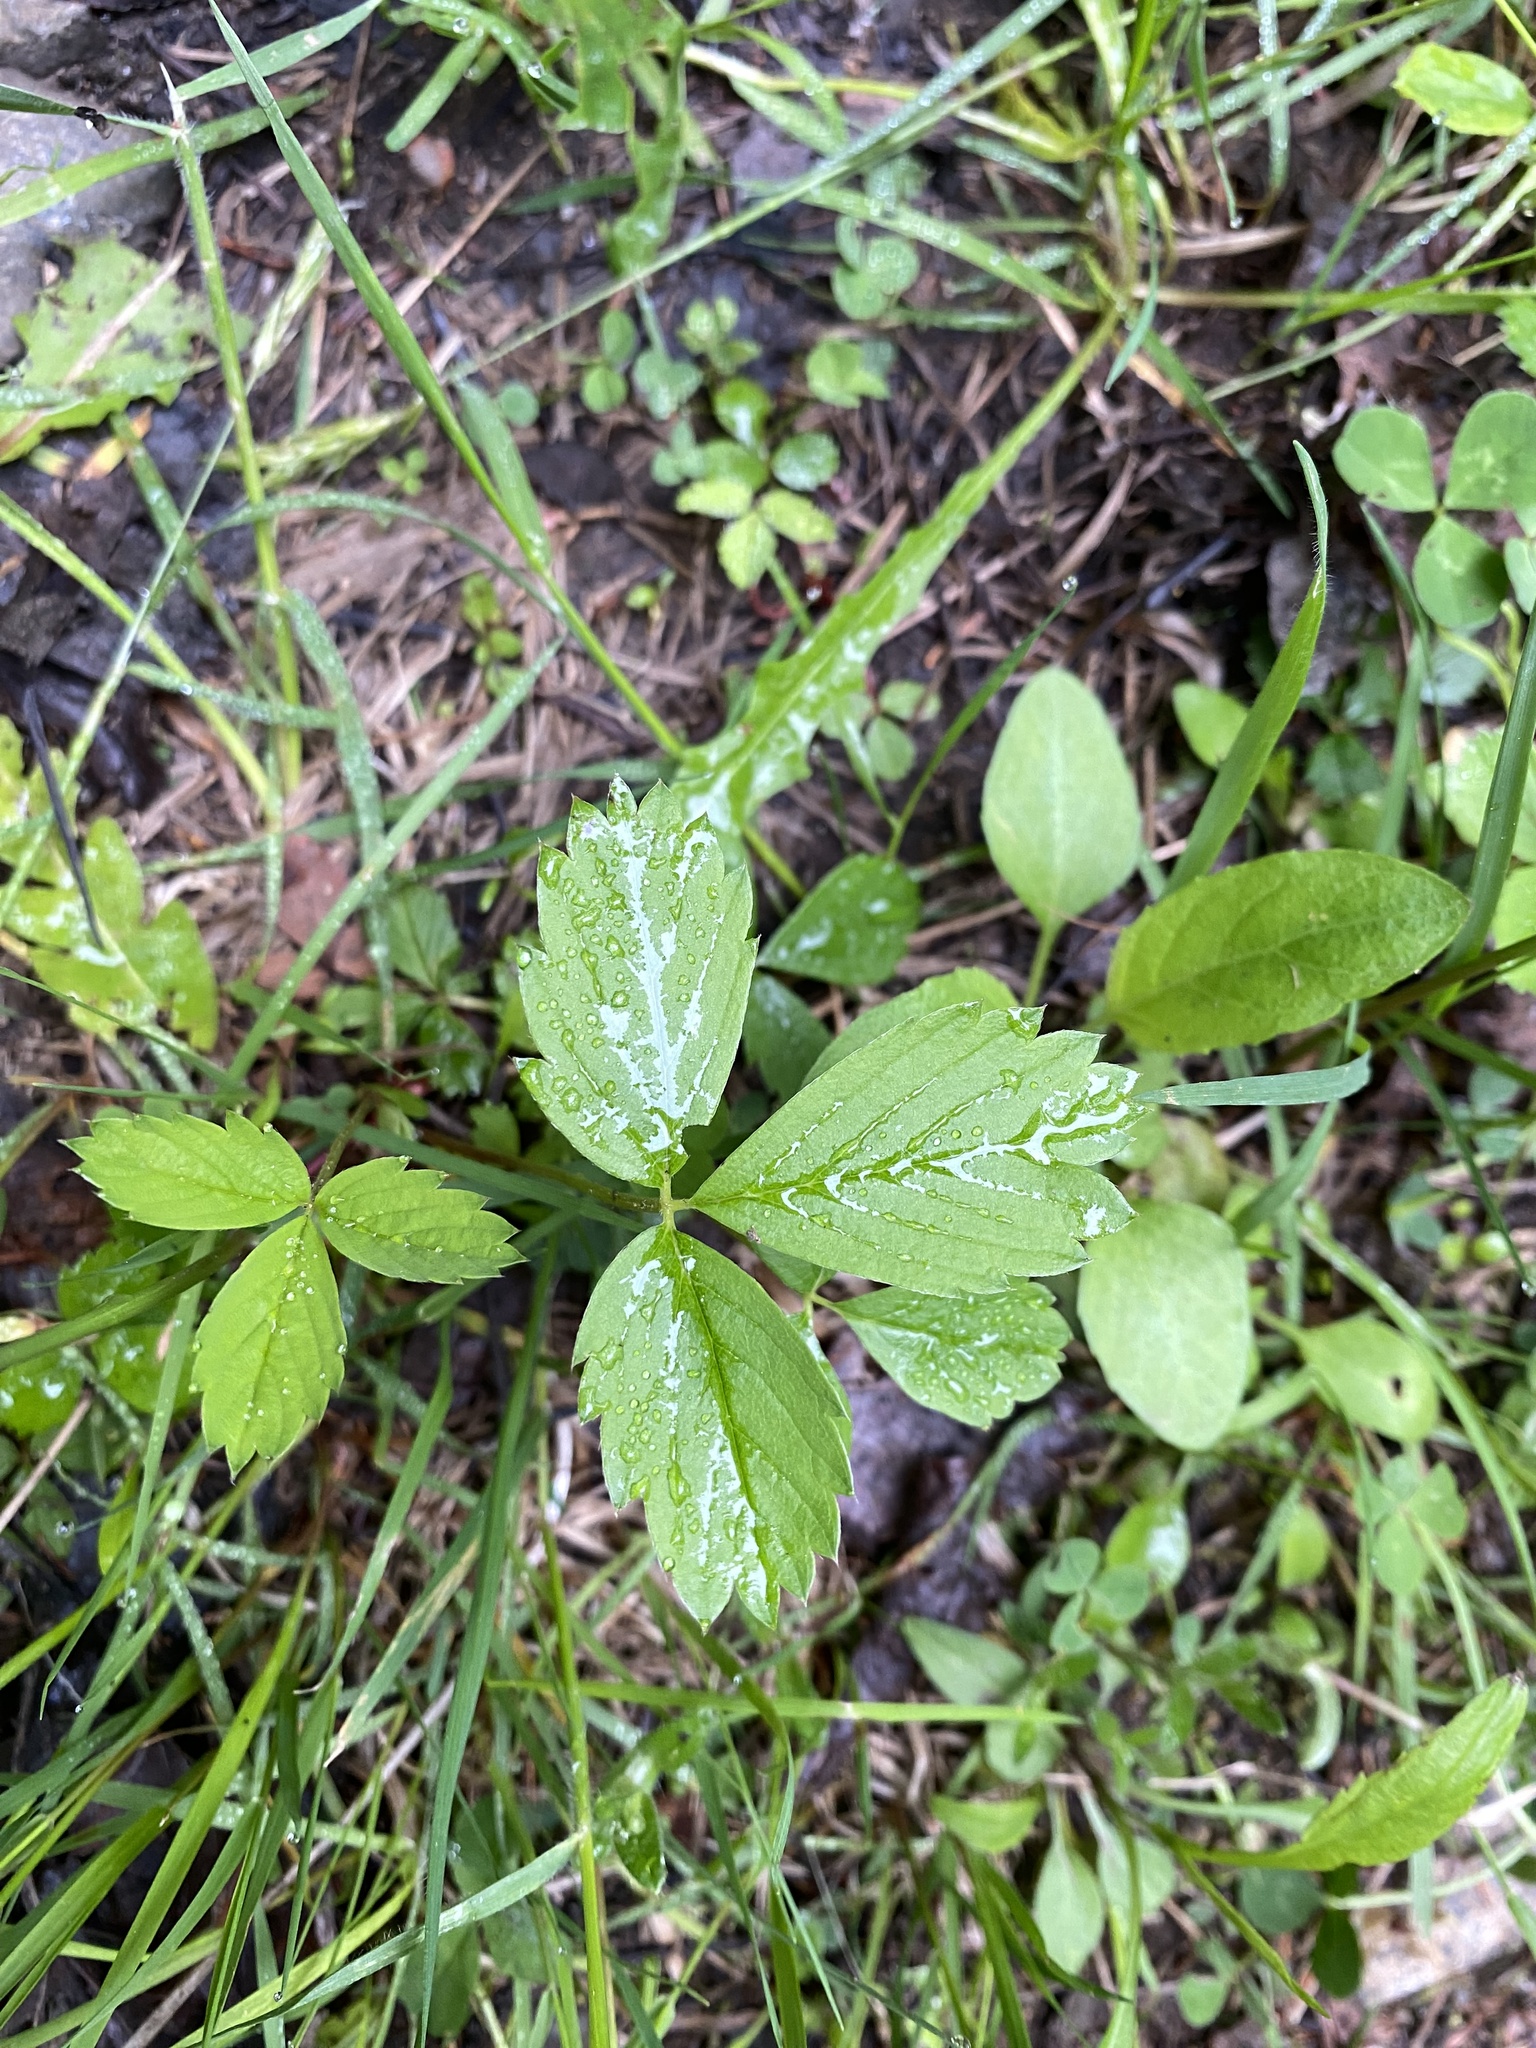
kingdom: Plantae
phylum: Tracheophyta
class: Magnoliopsida
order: Rosales
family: Rosaceae
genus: Fragaria
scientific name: Fragaria virginiana
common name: Thickleaved wild strawberry
